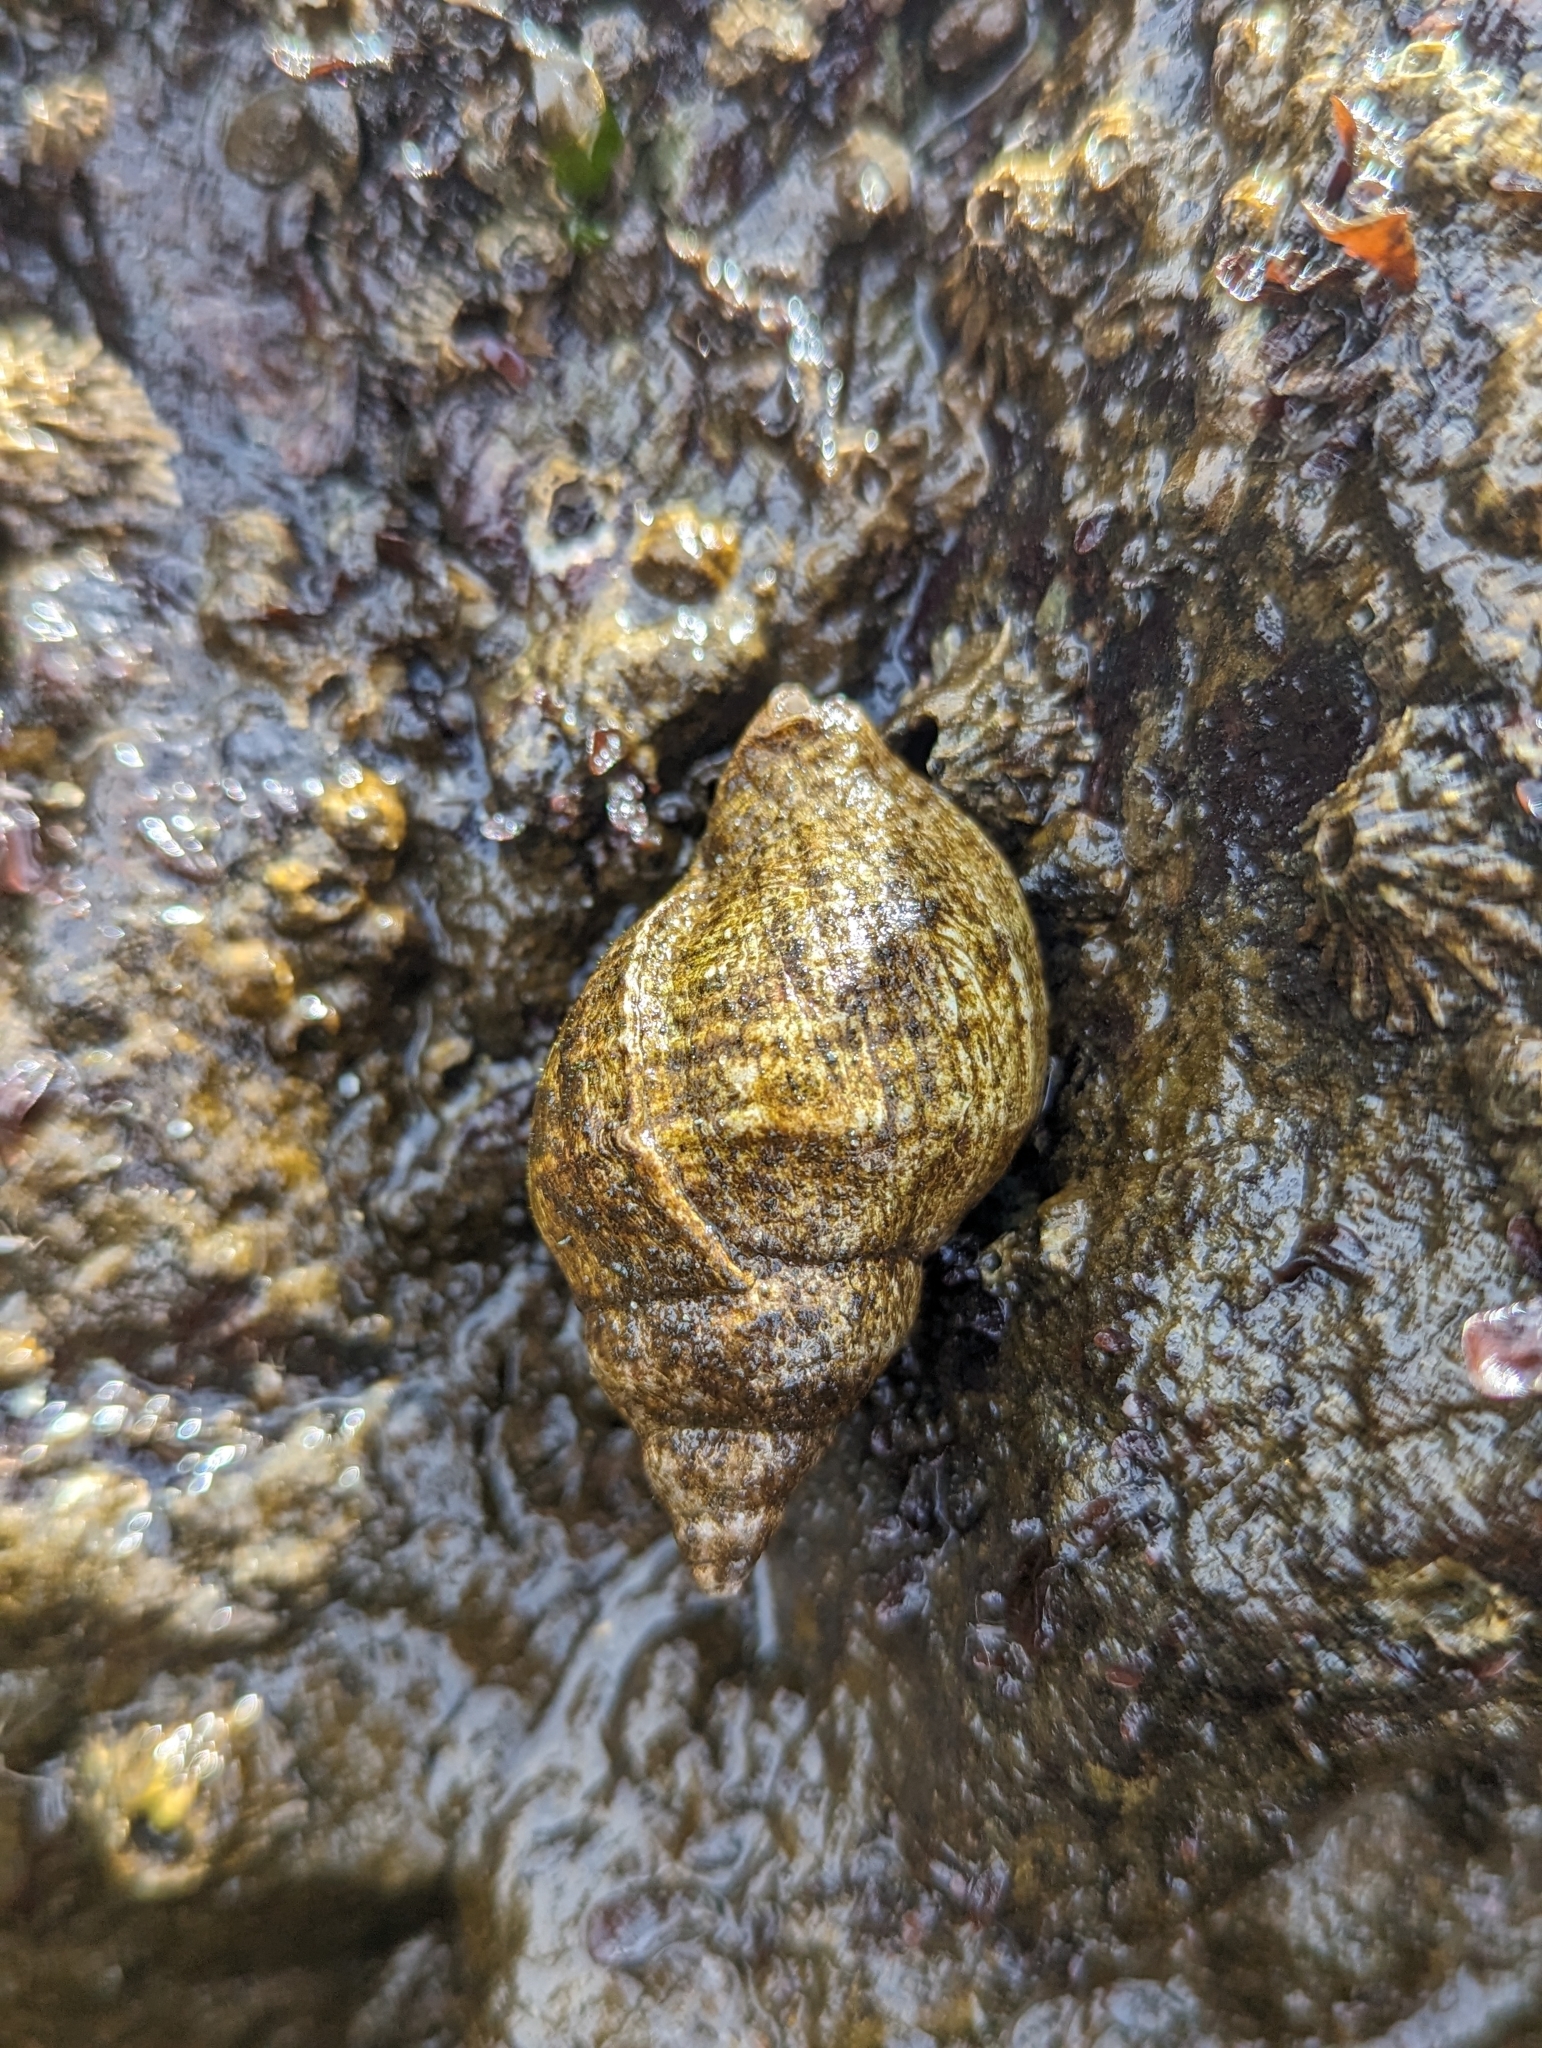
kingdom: Animalia
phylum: Mollusca
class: Gastropoda
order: Neogastropoda
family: Muricidae
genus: Nucella
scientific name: Nucella lamellosa
